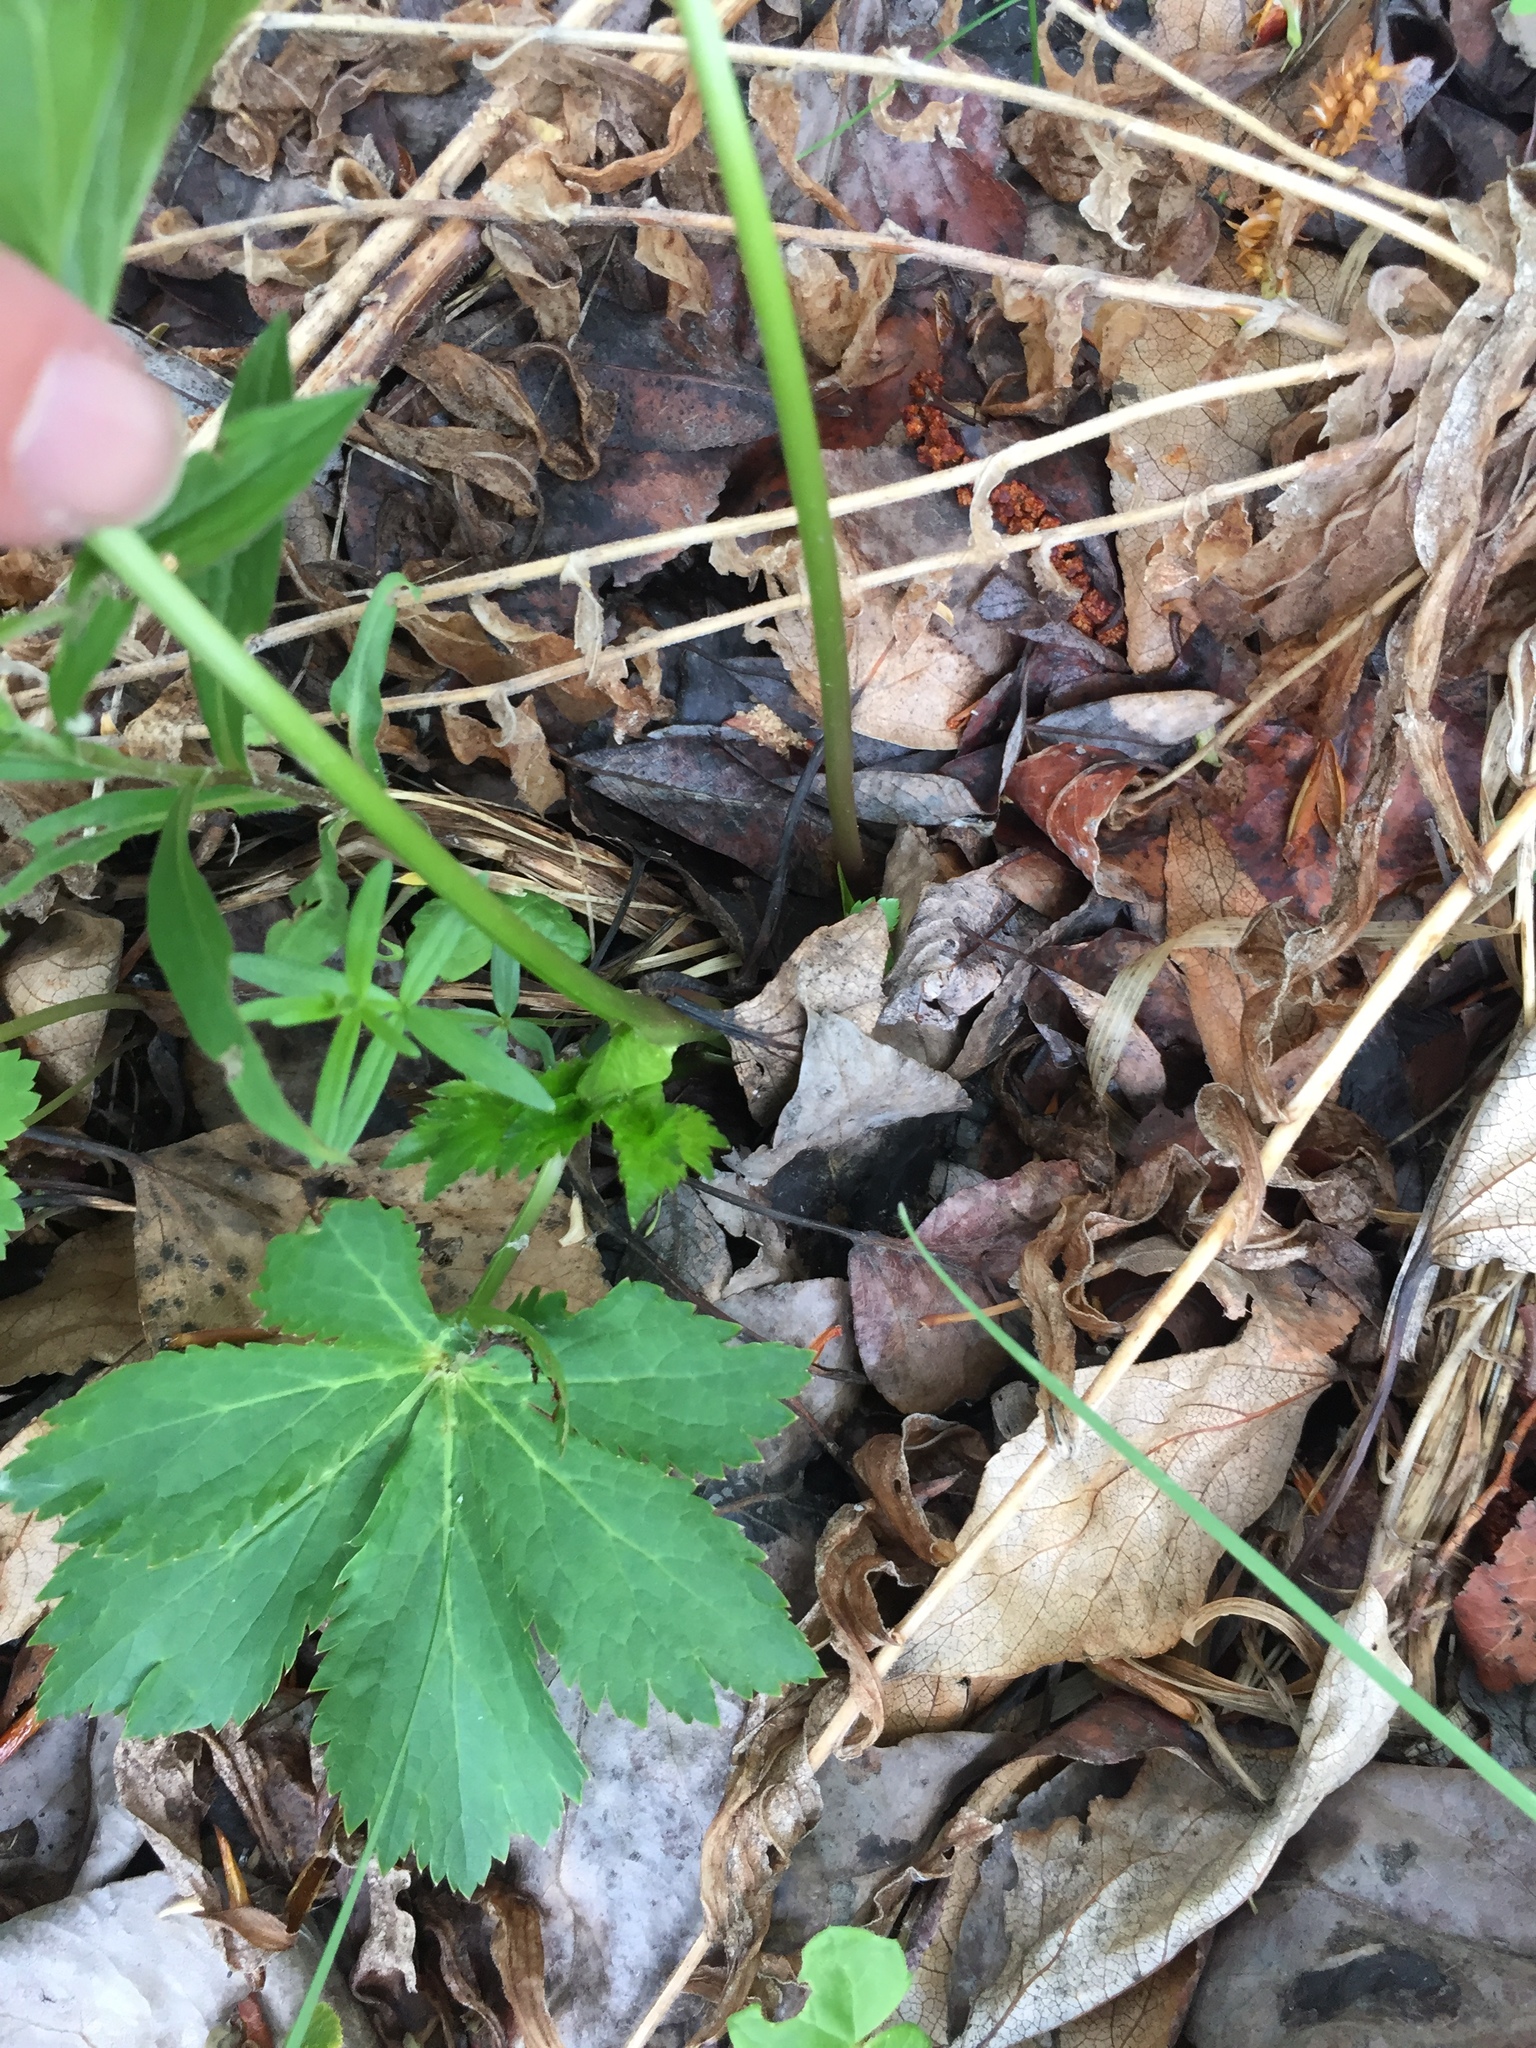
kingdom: Plantae
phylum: Tracheophyta
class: Magnoliopsida
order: Apiales
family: Apiaceae
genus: Sanicula
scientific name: Sanicula marilandica
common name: Black snakeroot
